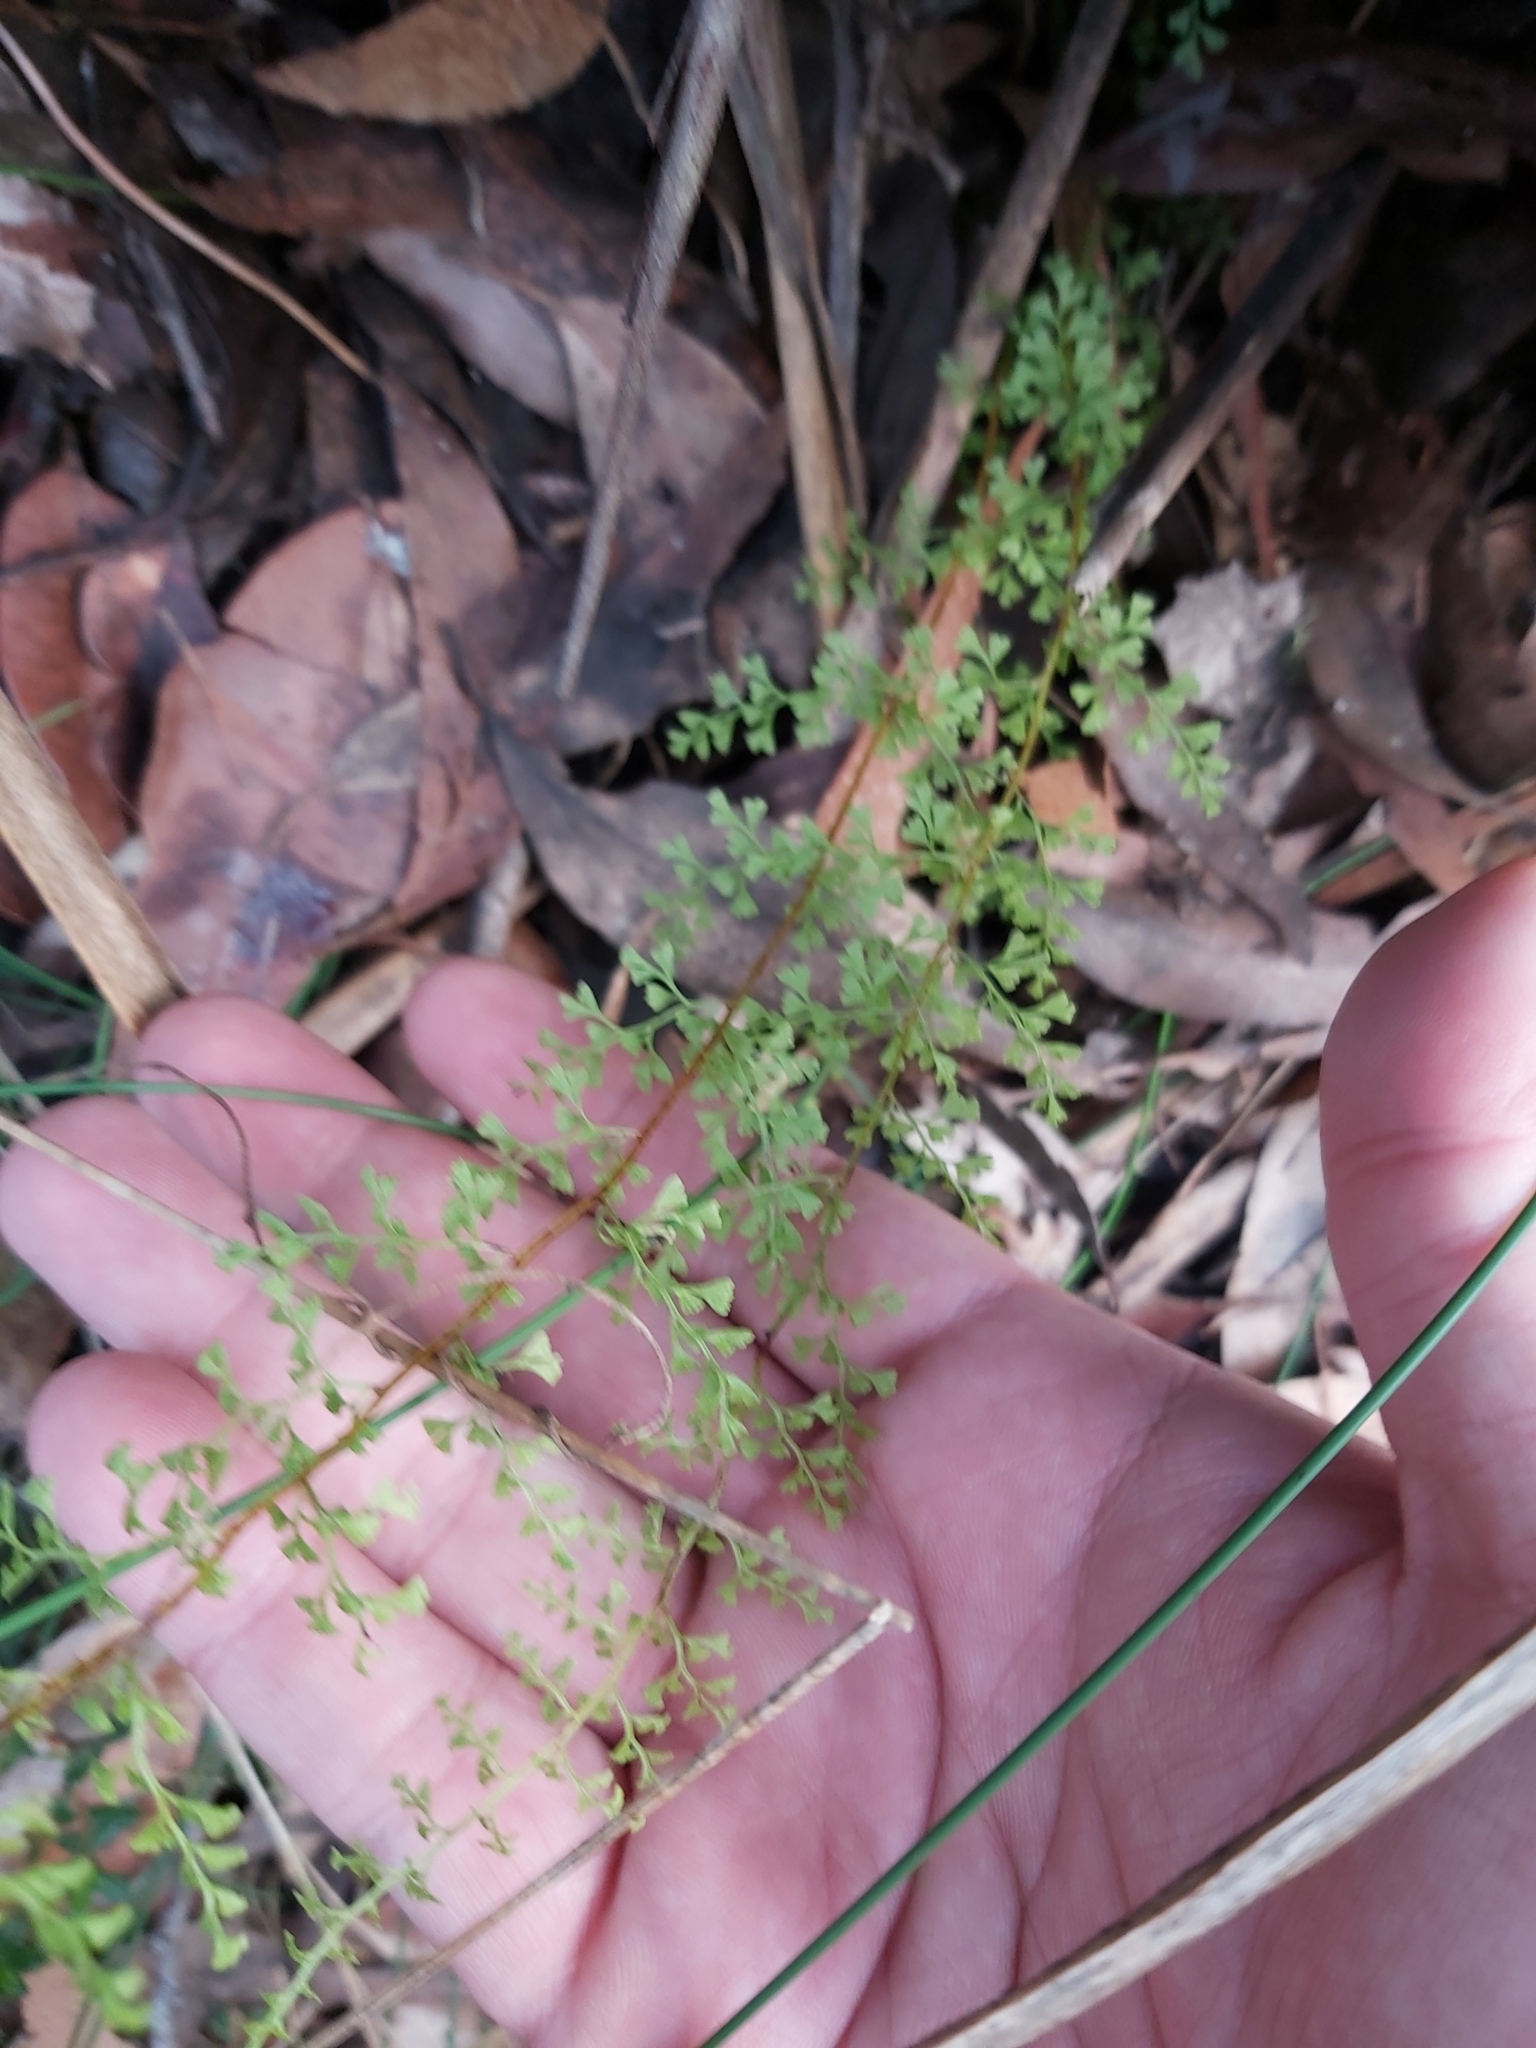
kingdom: Plantae
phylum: Tracheophyta
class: Polypodiopsida
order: Polypodiales
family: Lindsaeaceae
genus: Lindsaea
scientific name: Lindsaea microphylla
